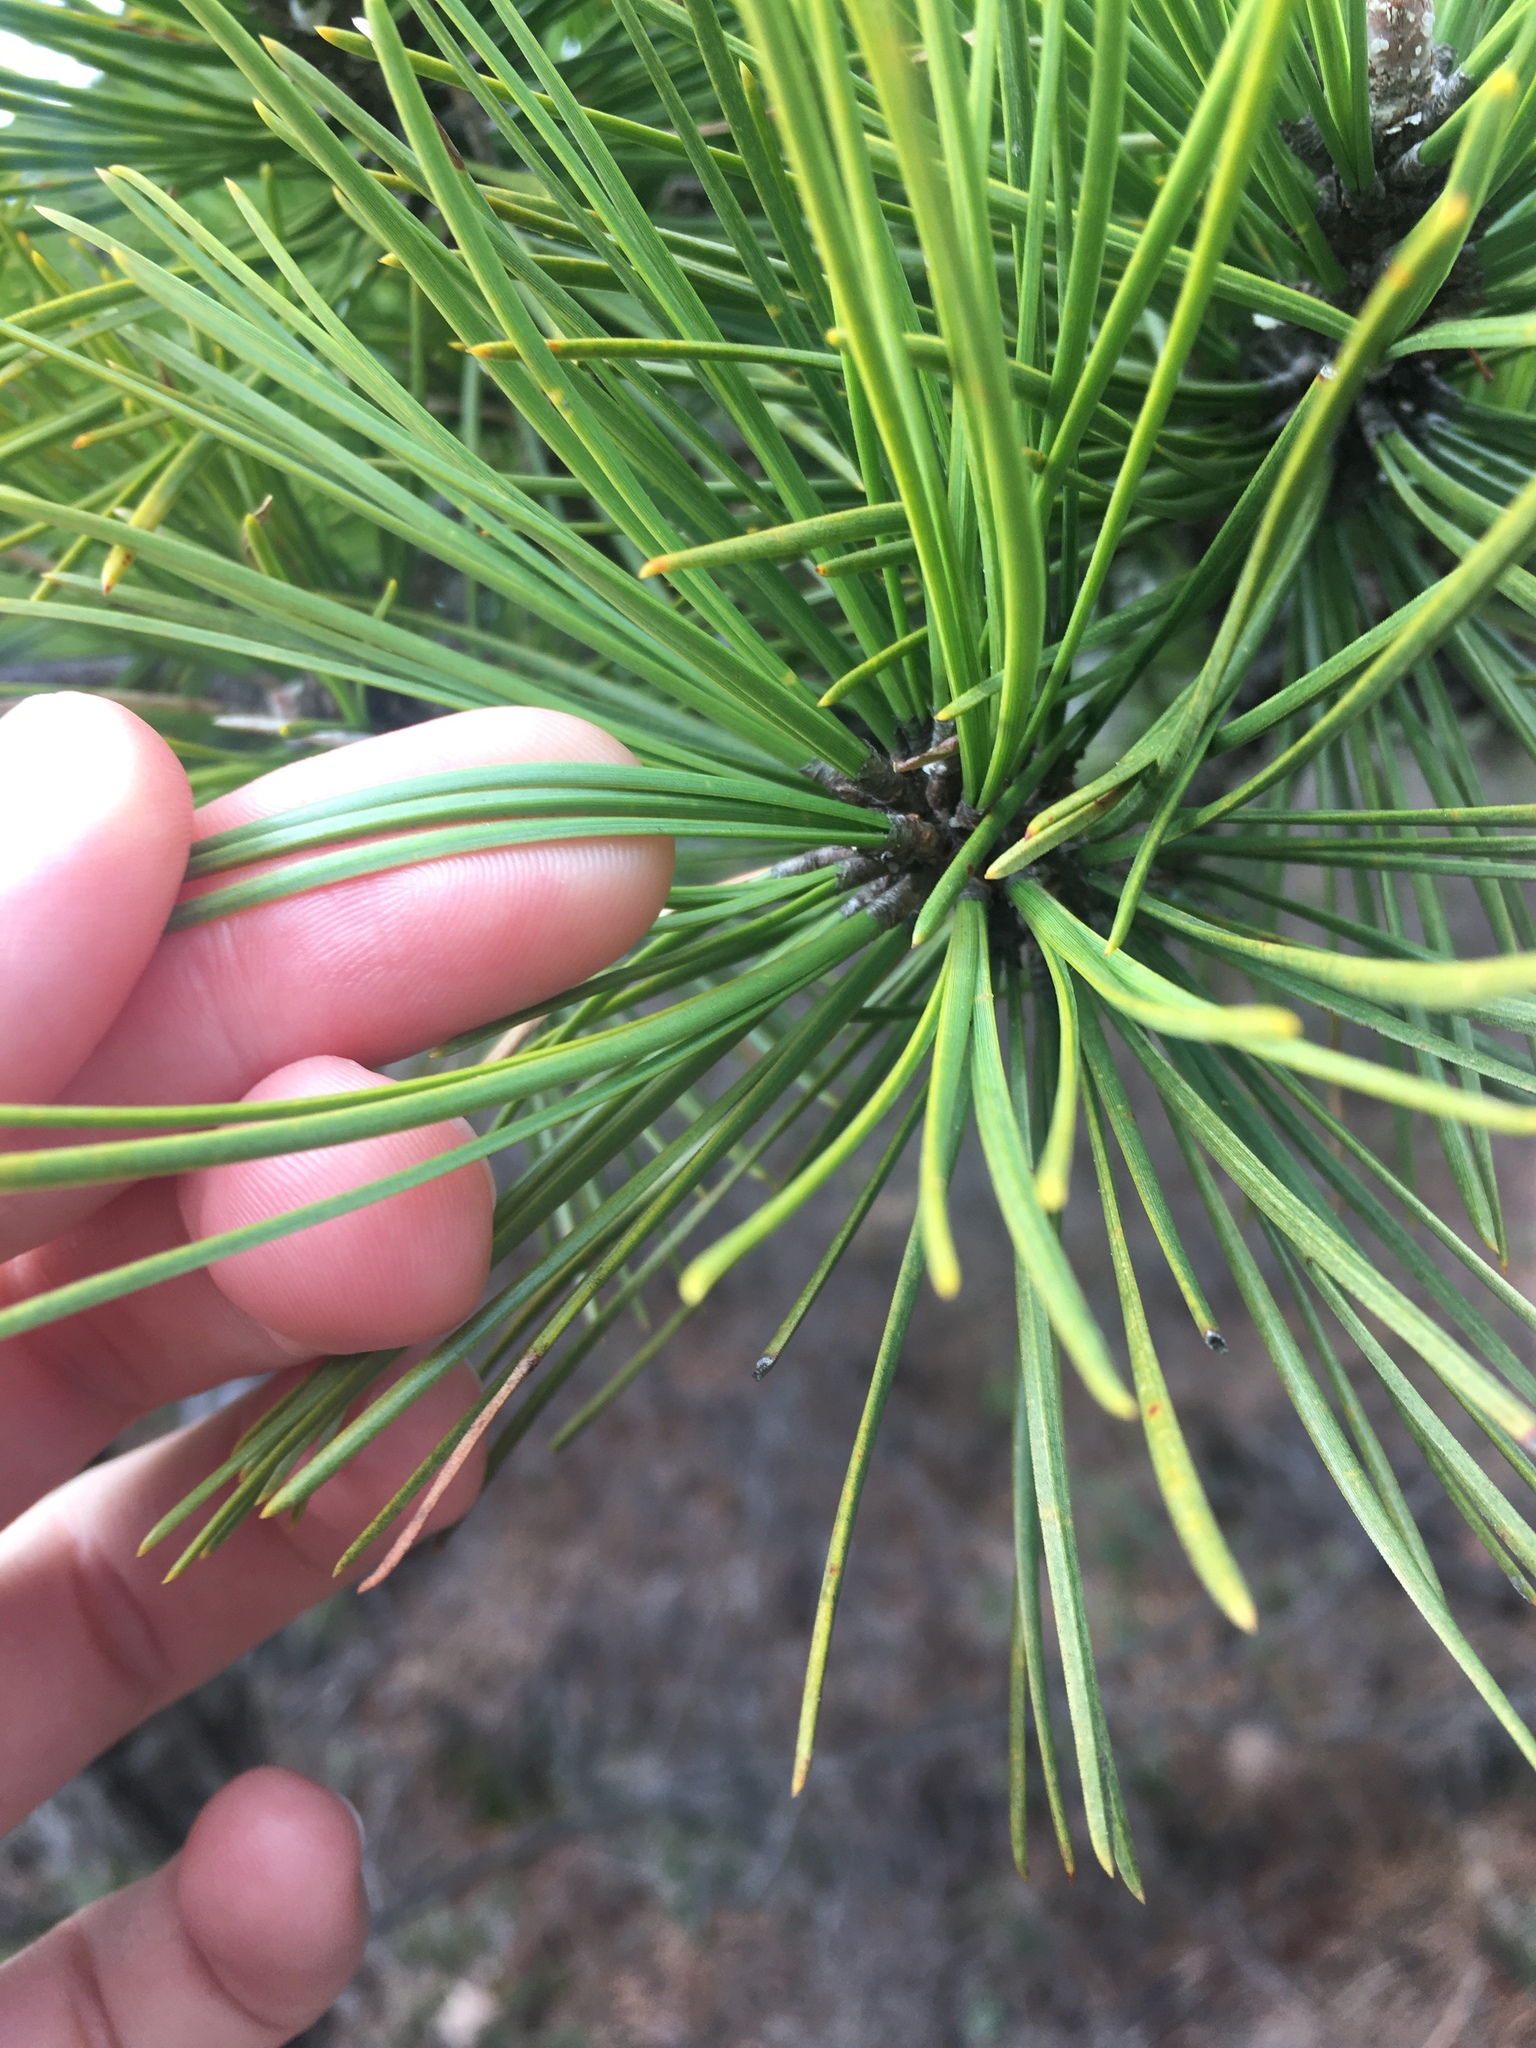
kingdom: Plantae
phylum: Tracheophyta
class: Pinopsida
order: Pinales
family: Pinaceae
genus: Pinus
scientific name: Pinus rigida
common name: Pitch pine
